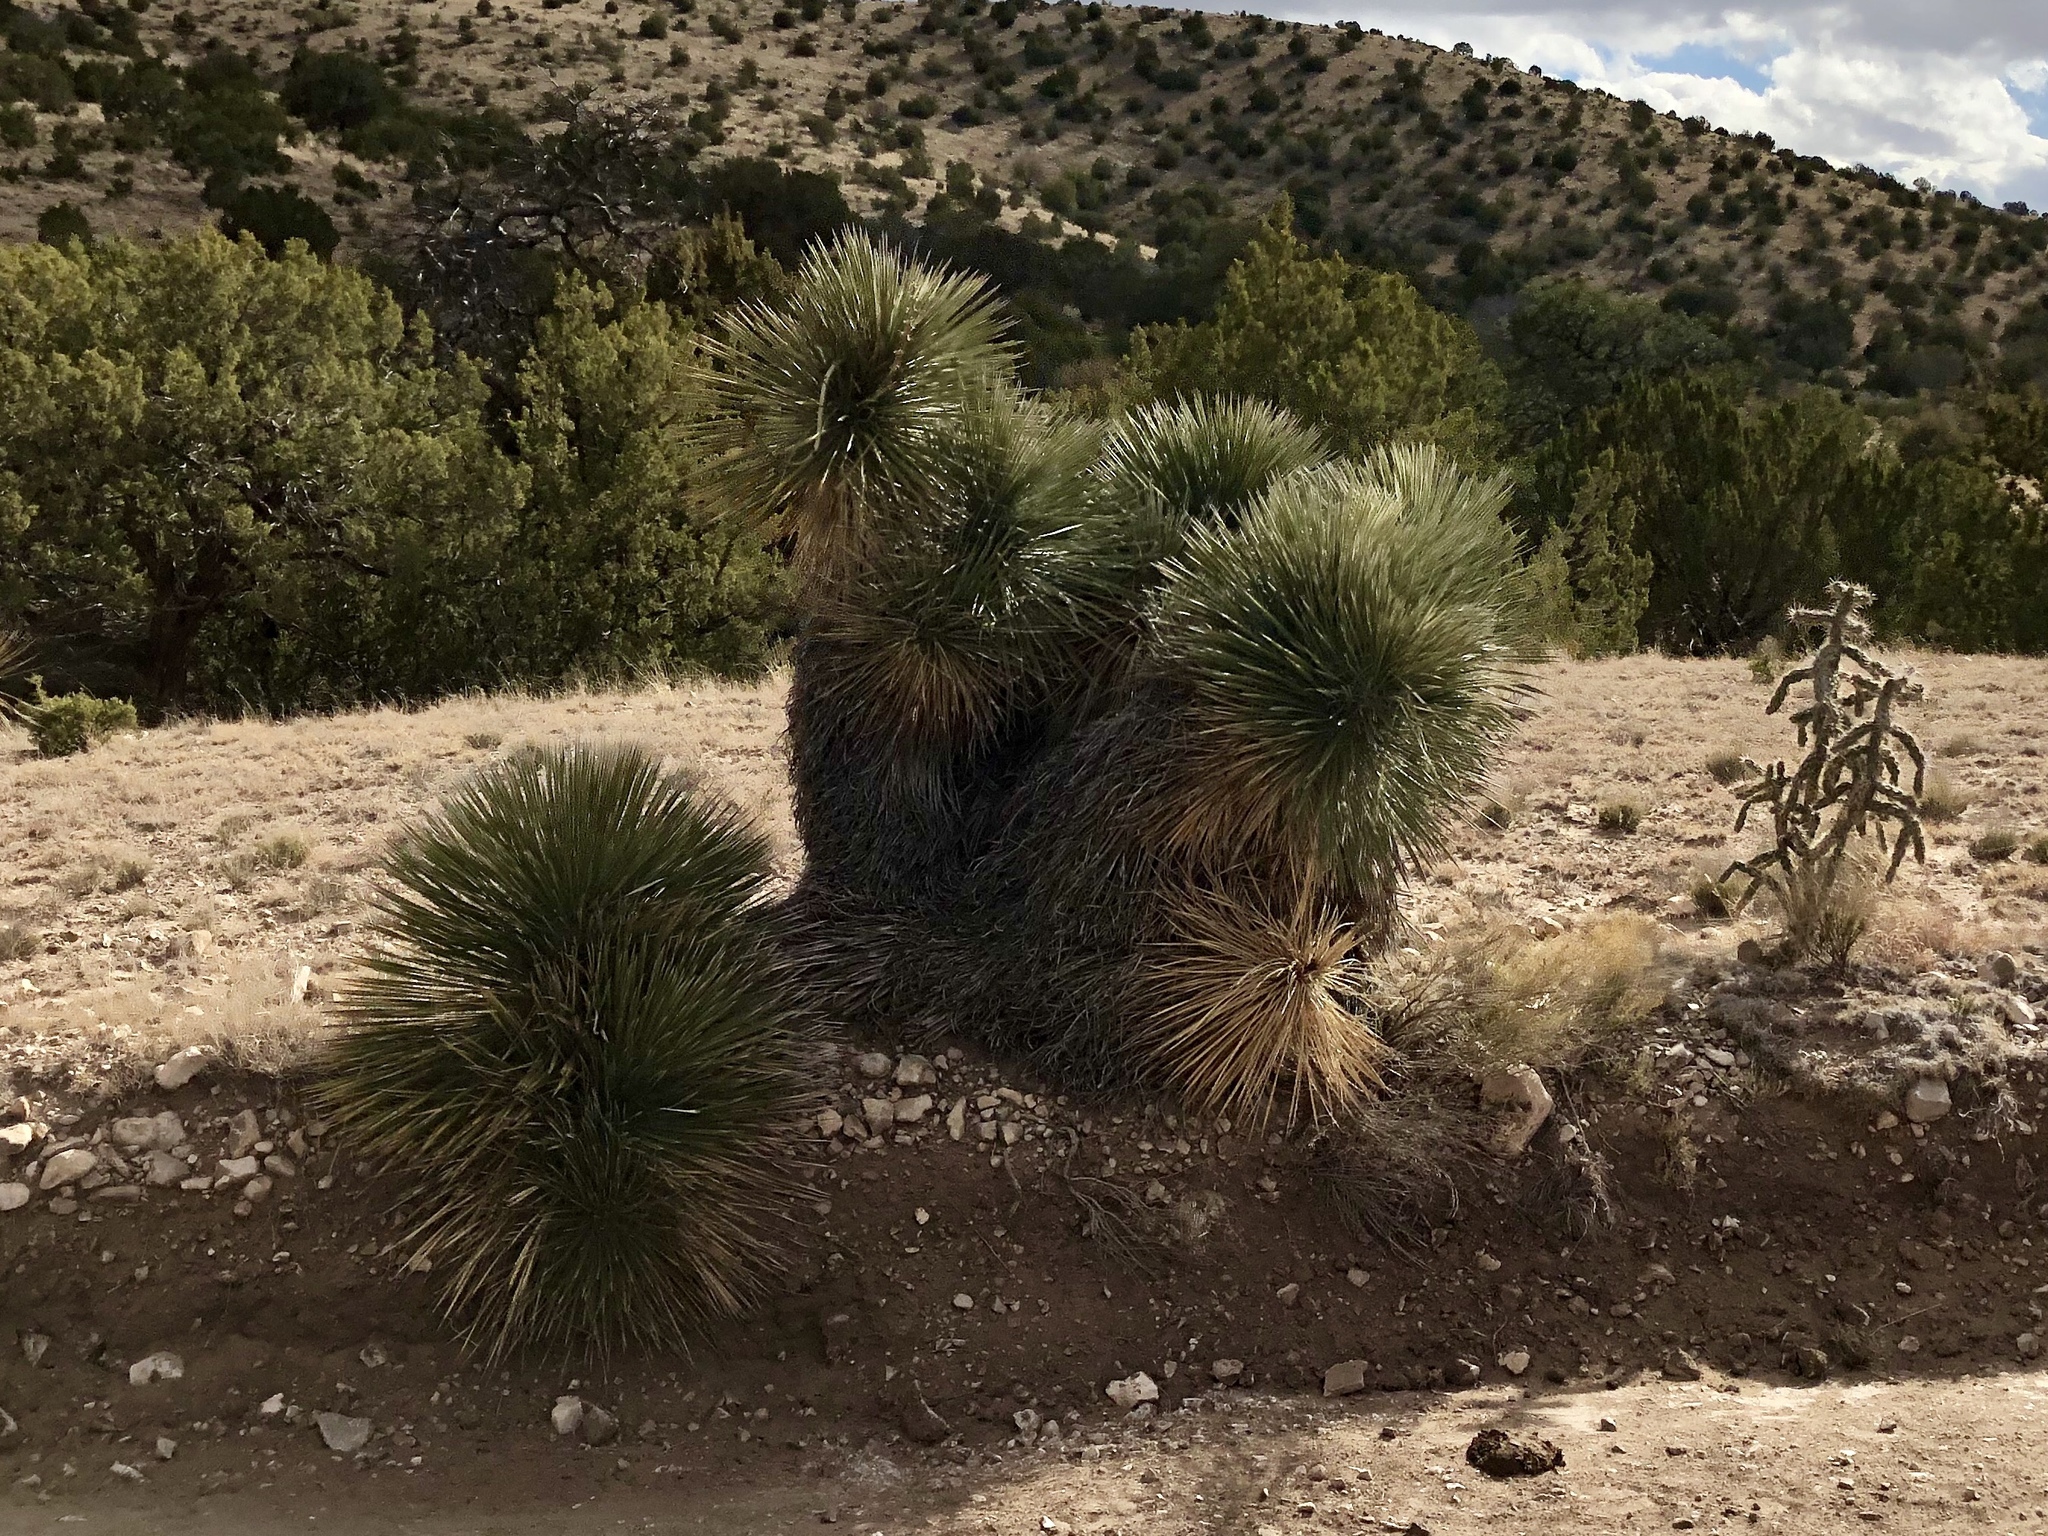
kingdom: Plantae
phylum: Tracheophyta
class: Liliopsida
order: Asparagales
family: Asparagaceae
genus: Yucca
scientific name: Yucca elata
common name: Palmella
